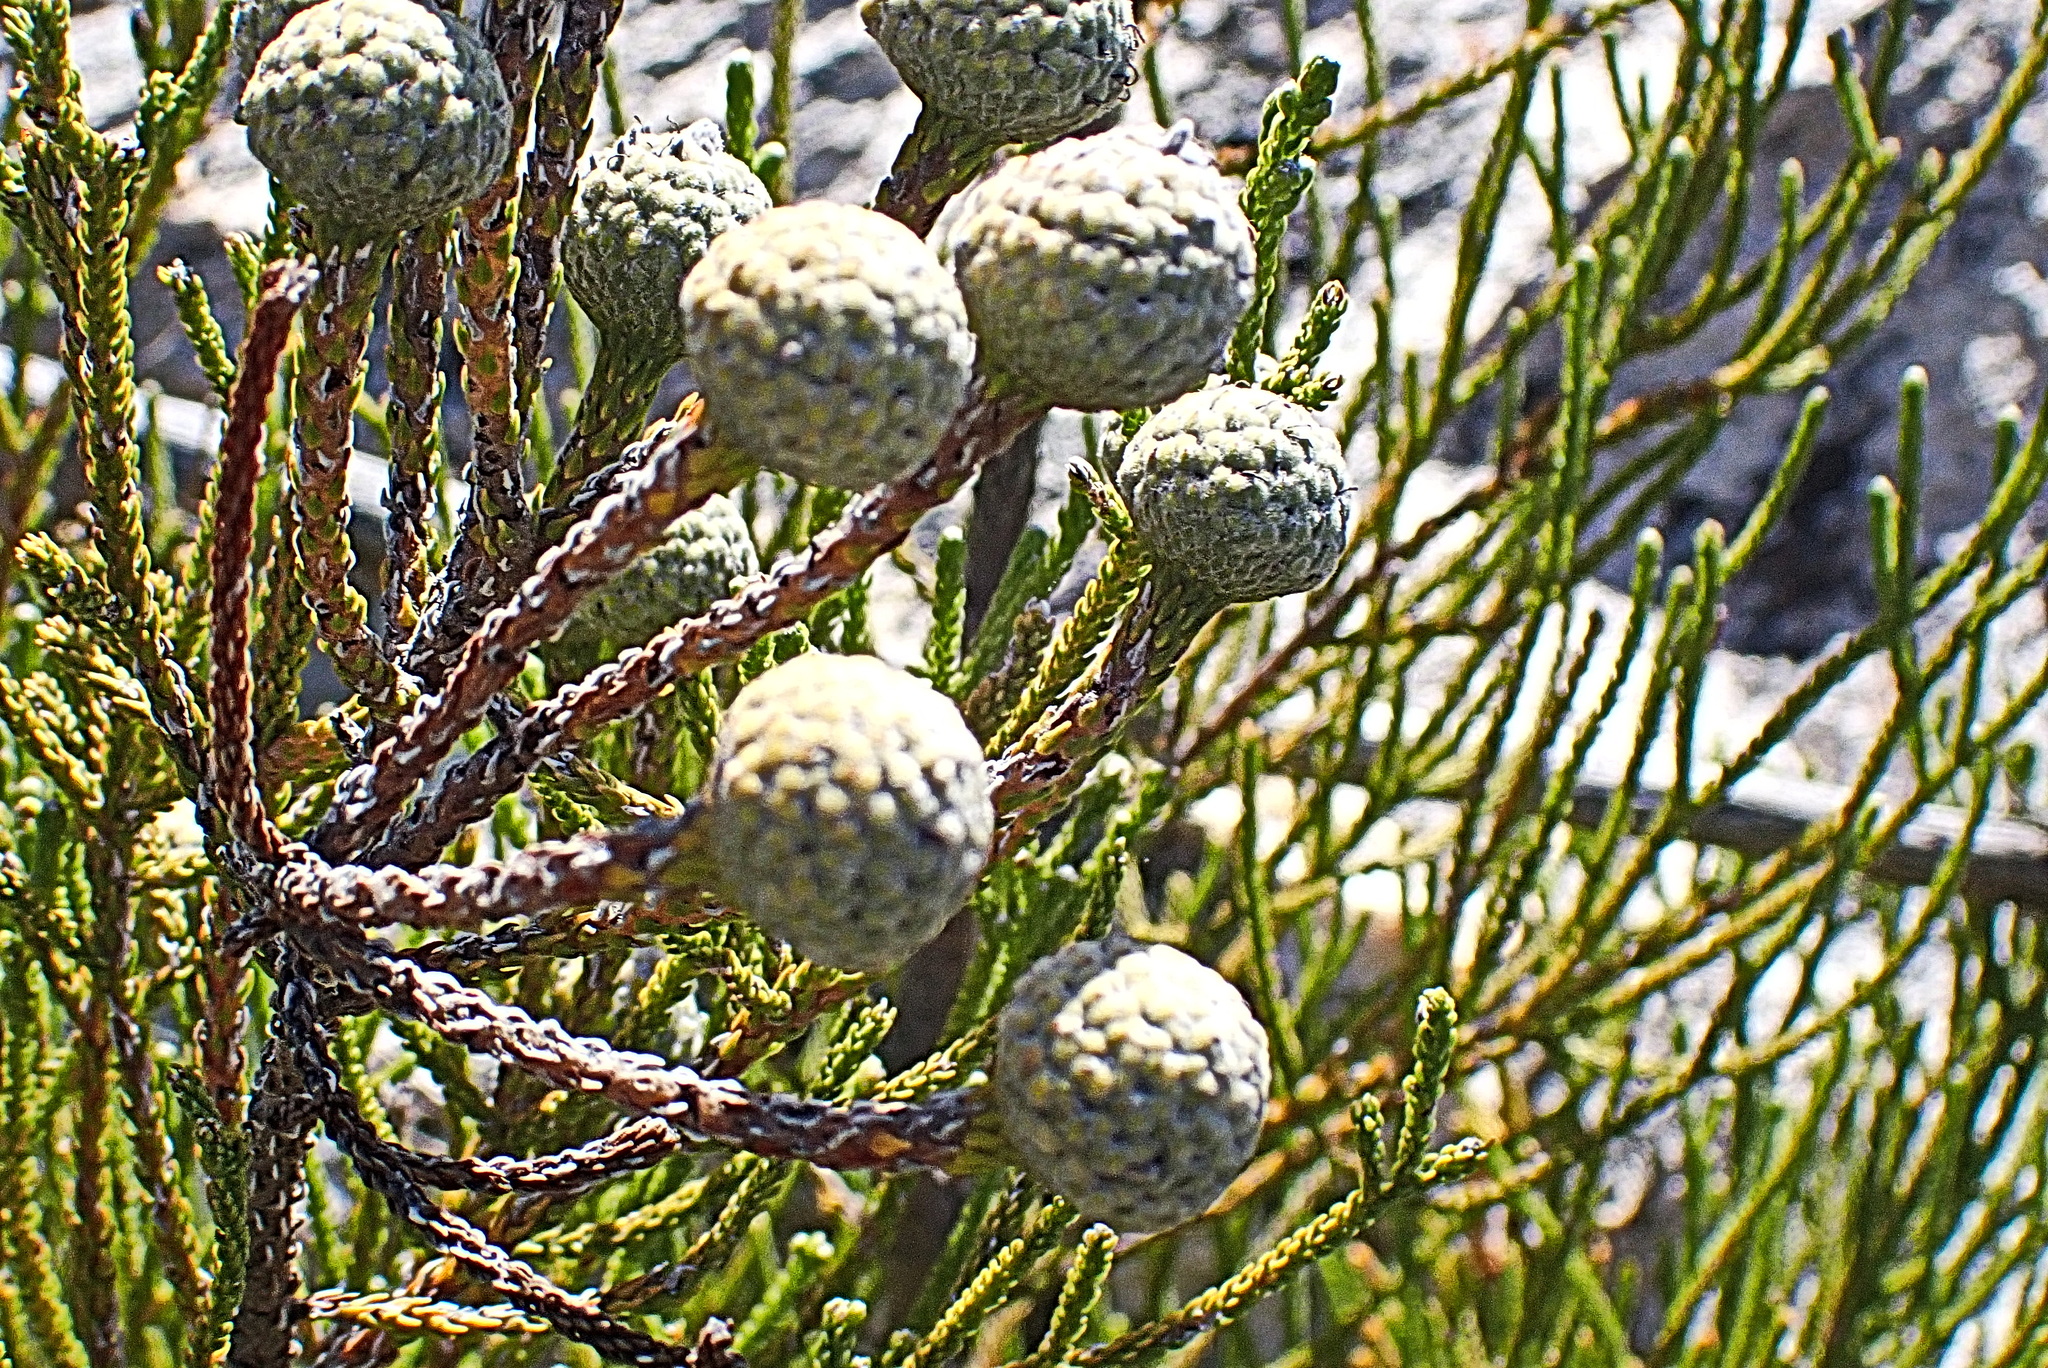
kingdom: Plantae
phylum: Tracheophyta
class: Magnoliopsida
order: Bruniales
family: Bruniaceae
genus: Brunia
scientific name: Brunia noduliflora
